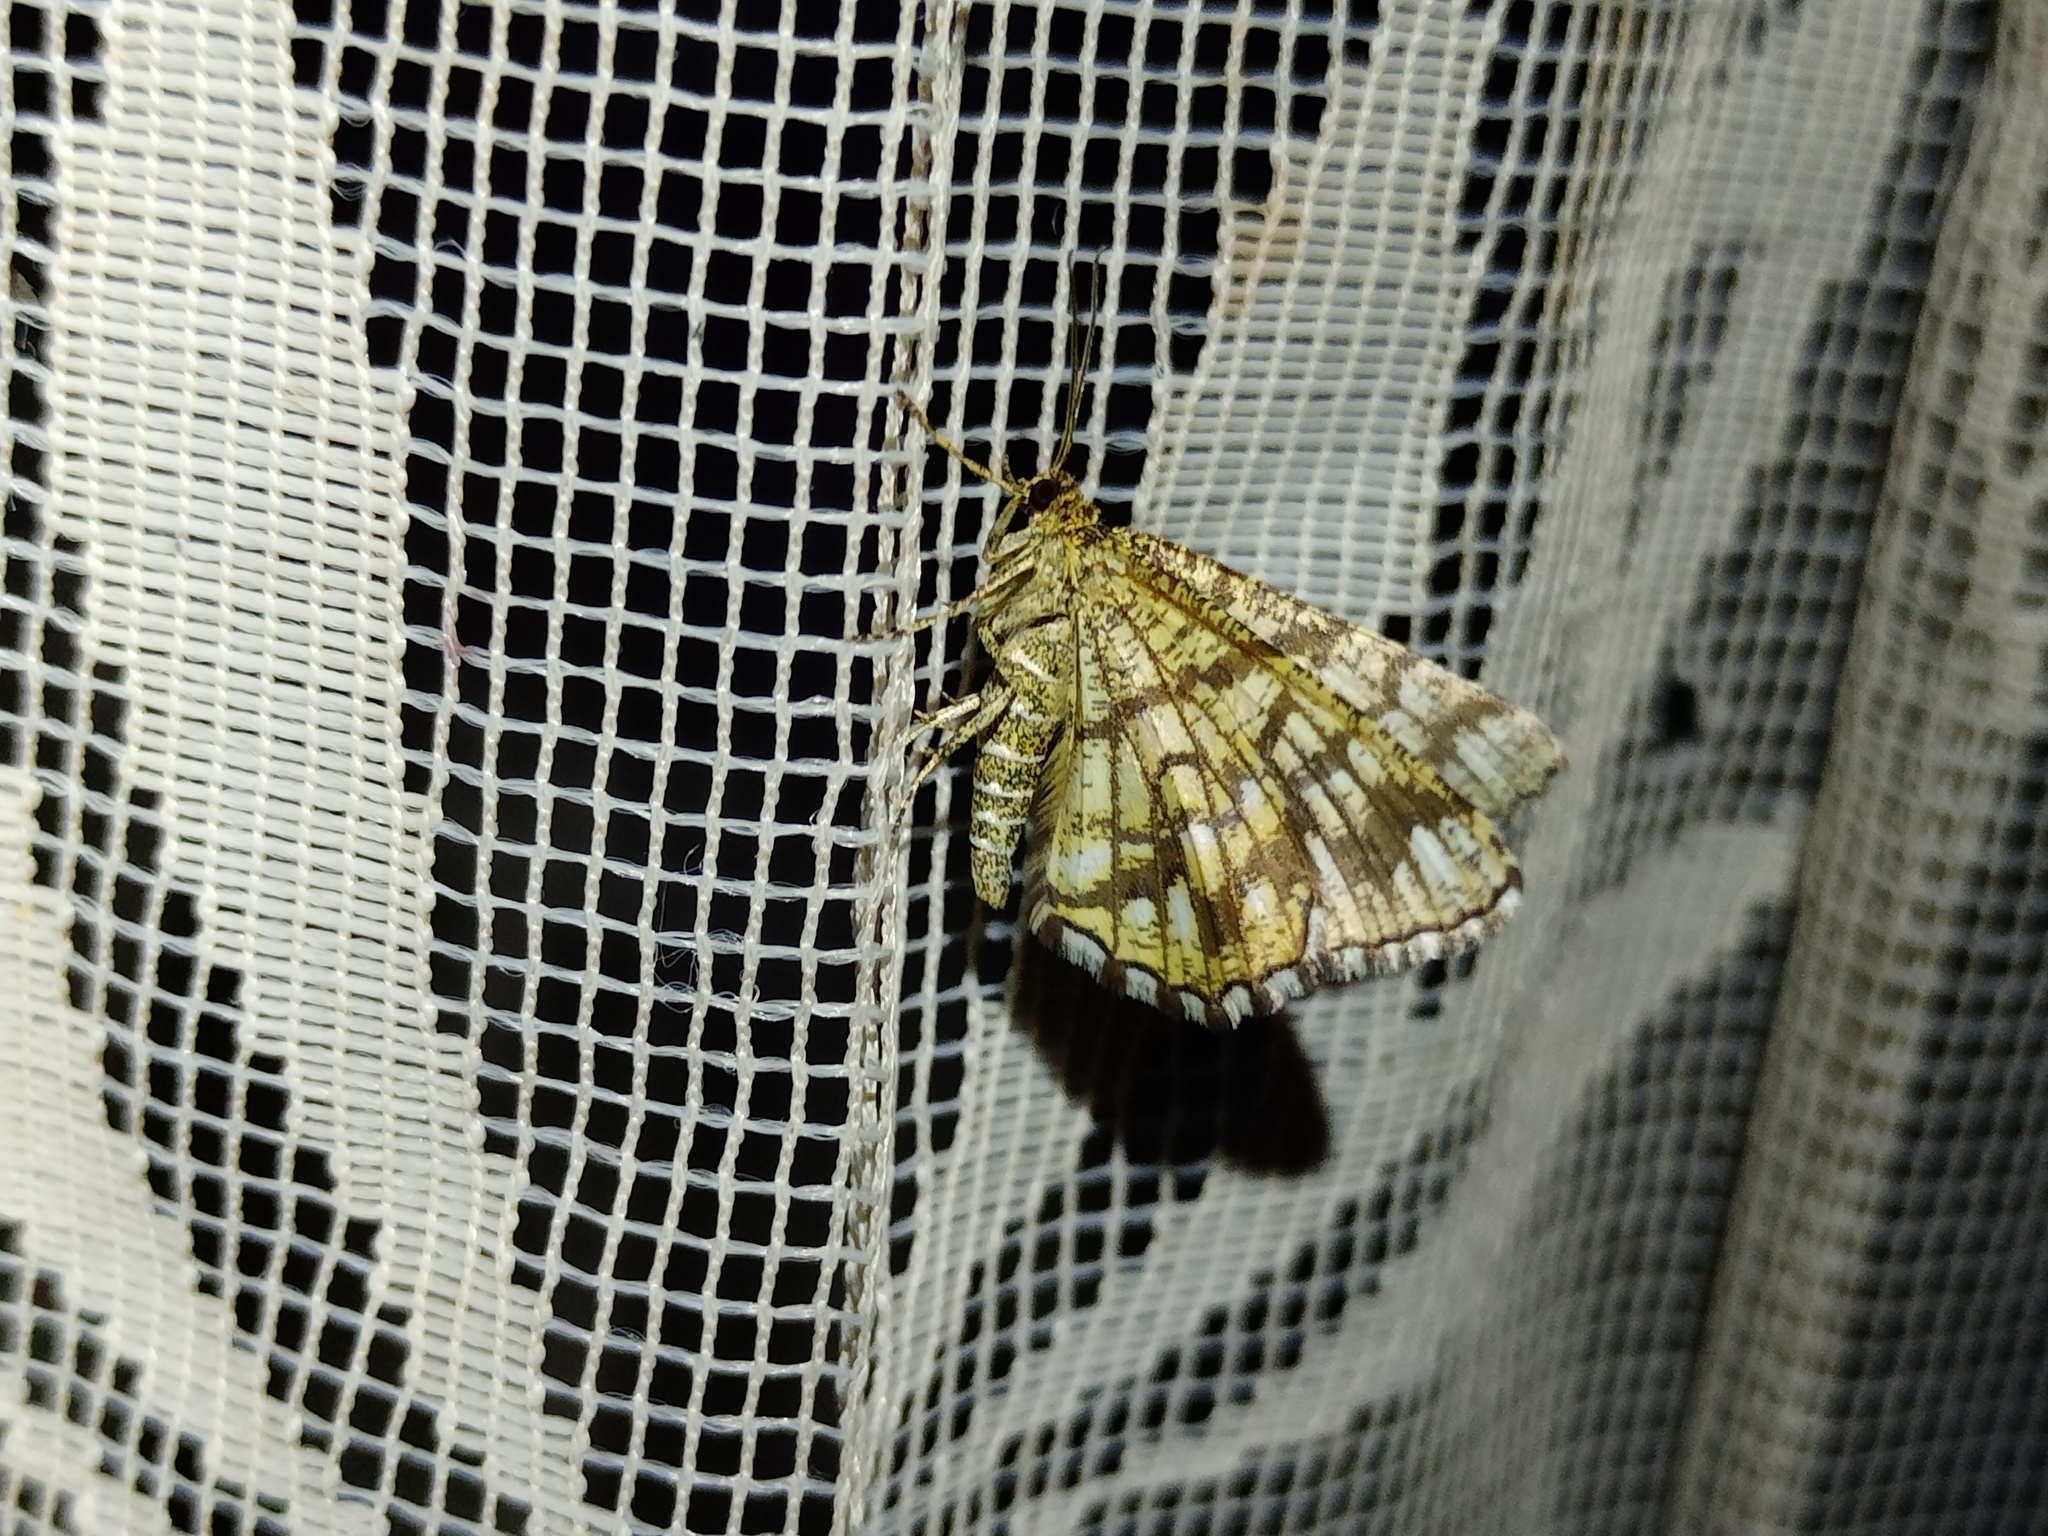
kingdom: Animalia
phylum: Arthropoda
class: Insecta
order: Lepidoptera
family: Geometridae
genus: Chiasmia
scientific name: Chiasmia clathrata
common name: Latticed heath
